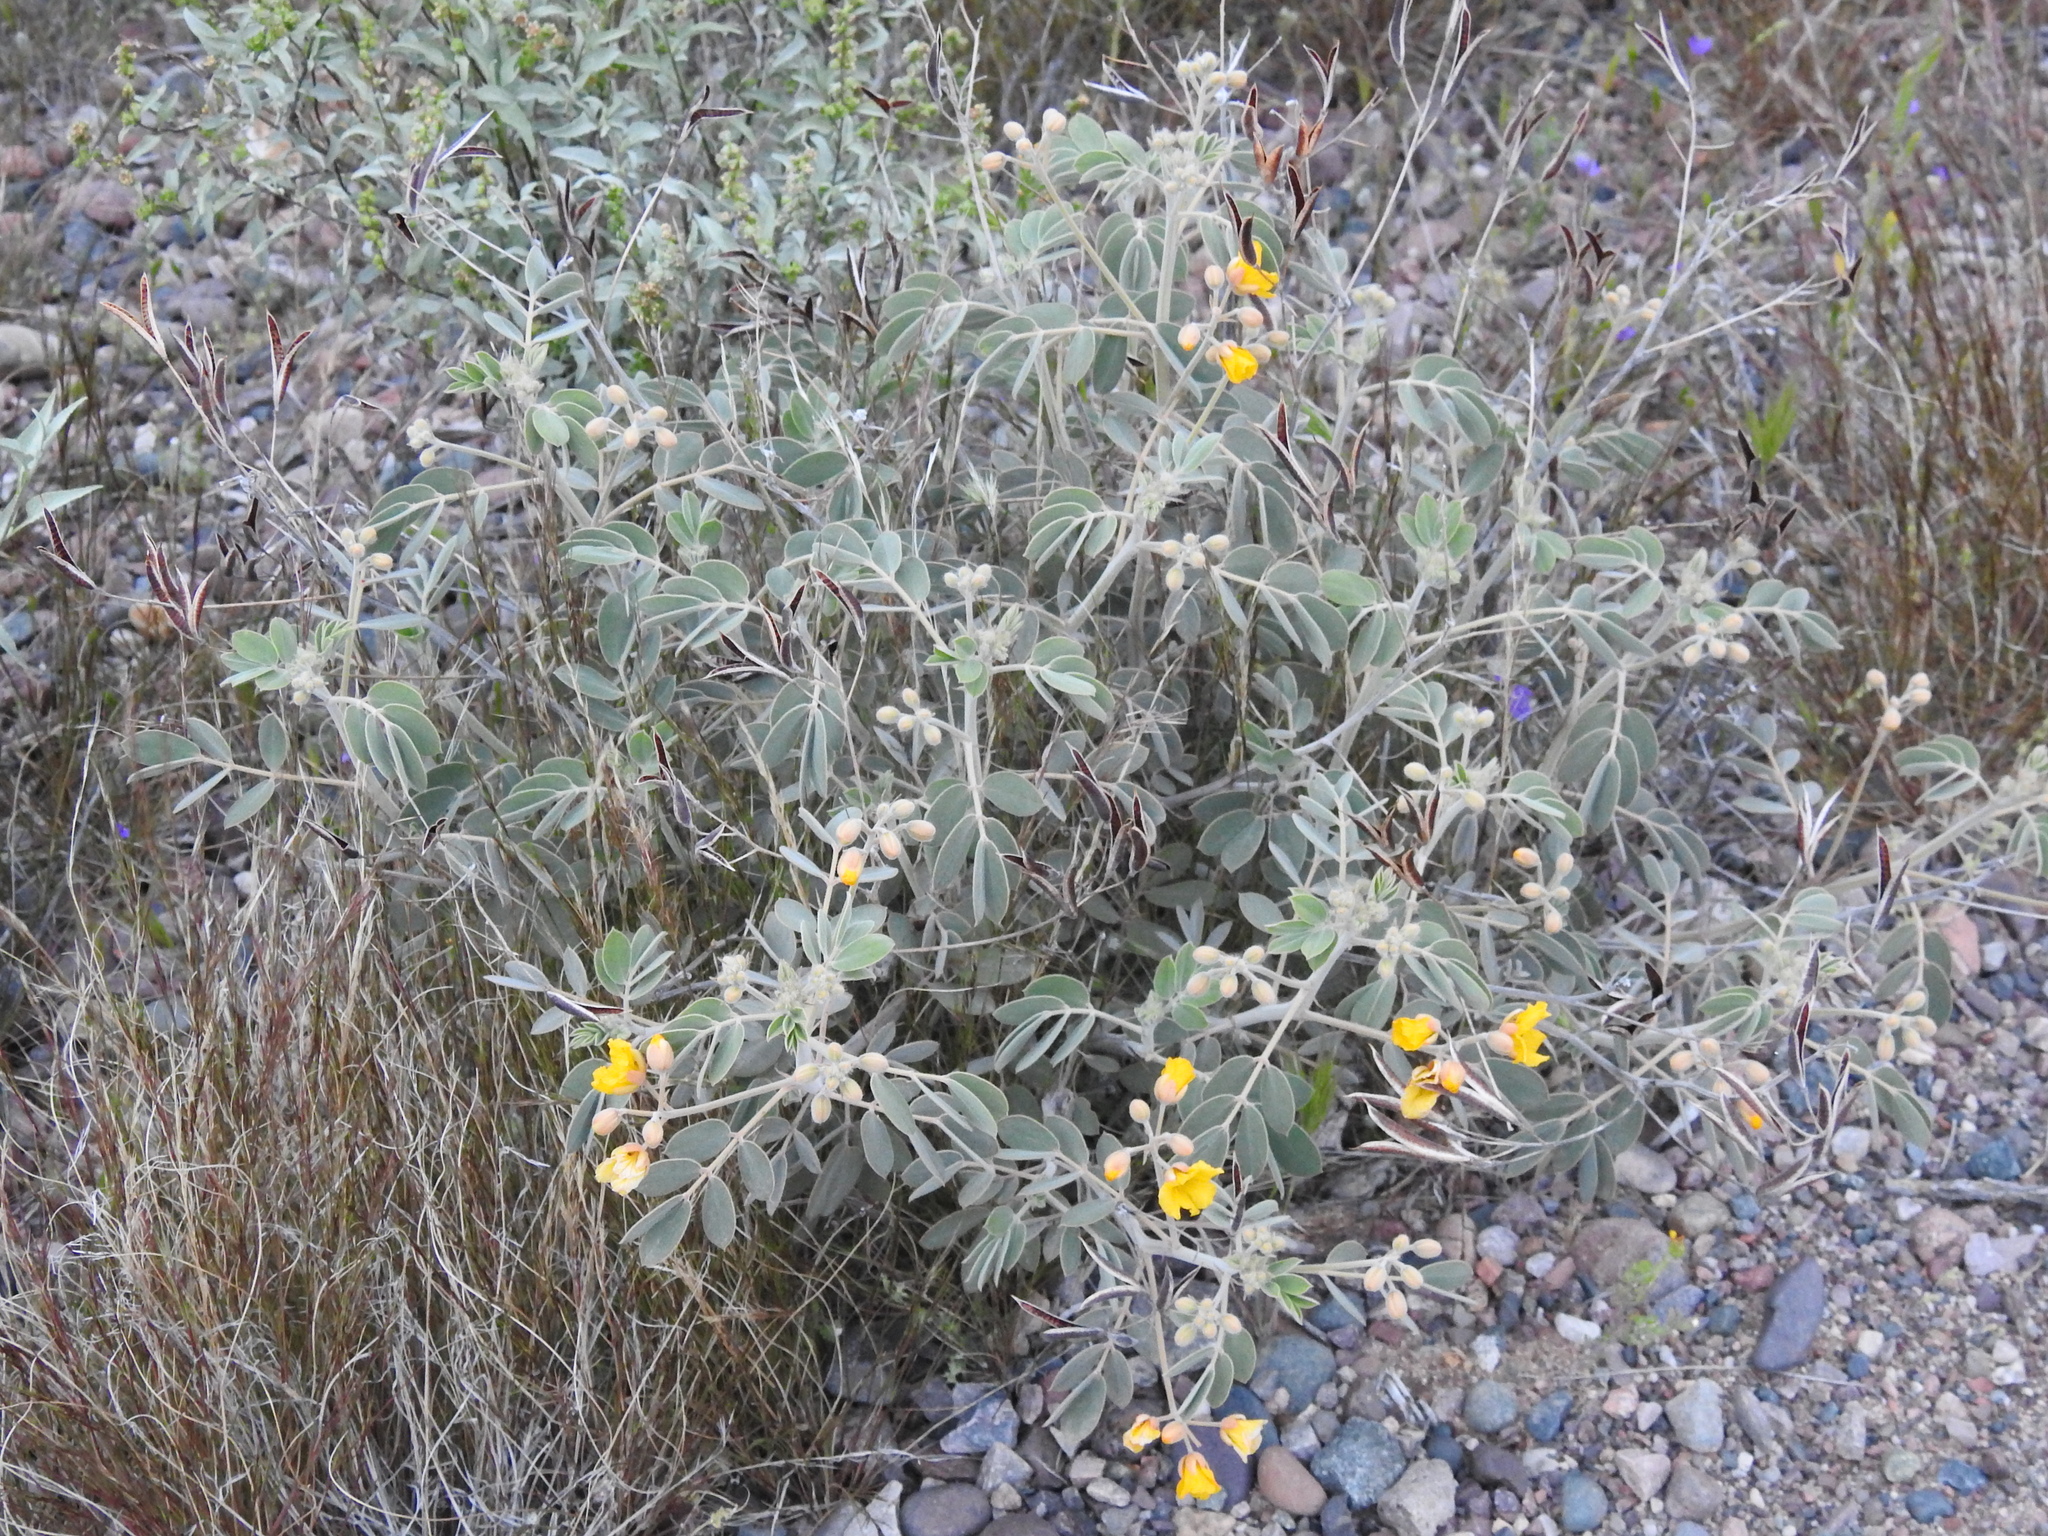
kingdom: Plantae
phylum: Tracheophyta
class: Magnoliopsida
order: Fabales
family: Fabaceae
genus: Senna
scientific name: Senna covesii
